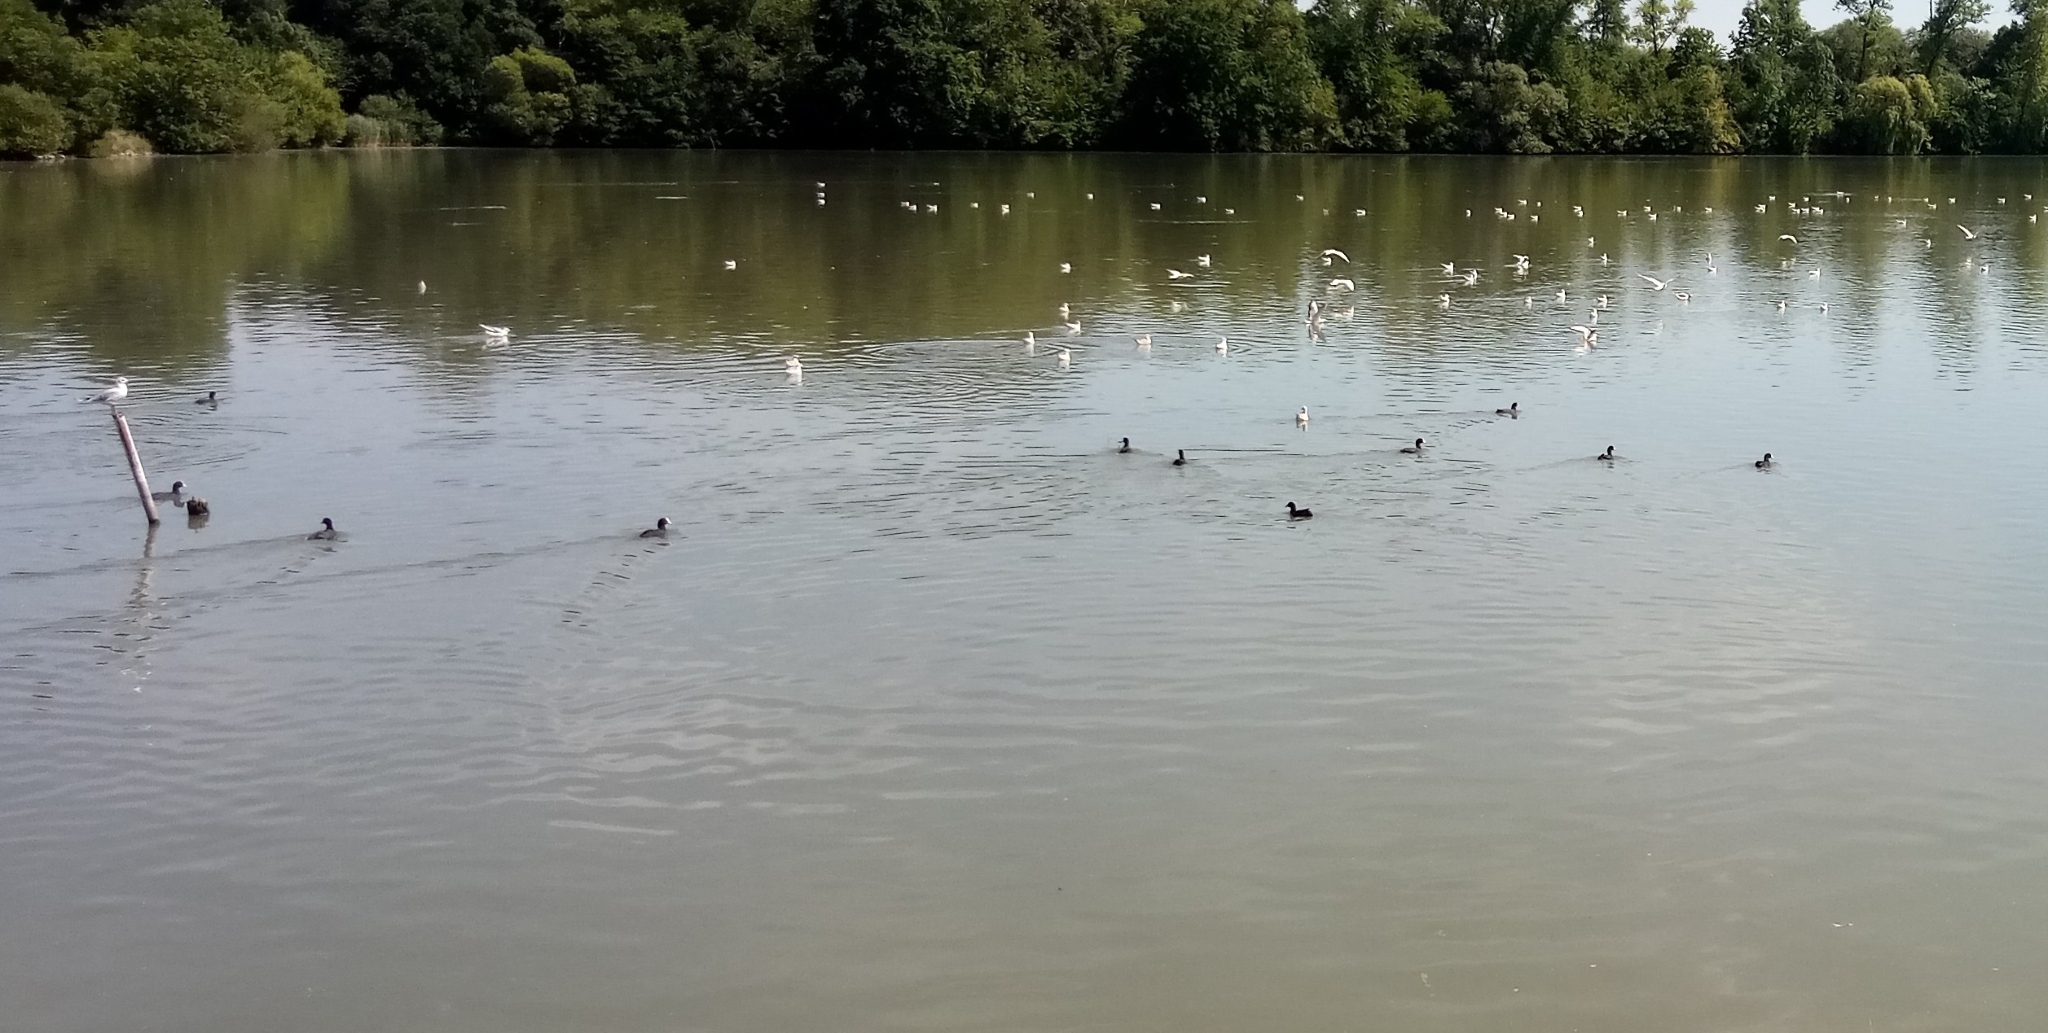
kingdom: Animalia
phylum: Chordata
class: Aves
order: Gruiformes
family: Rallidae
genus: Fulica
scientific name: Fulica atra
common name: Eurasian coot
